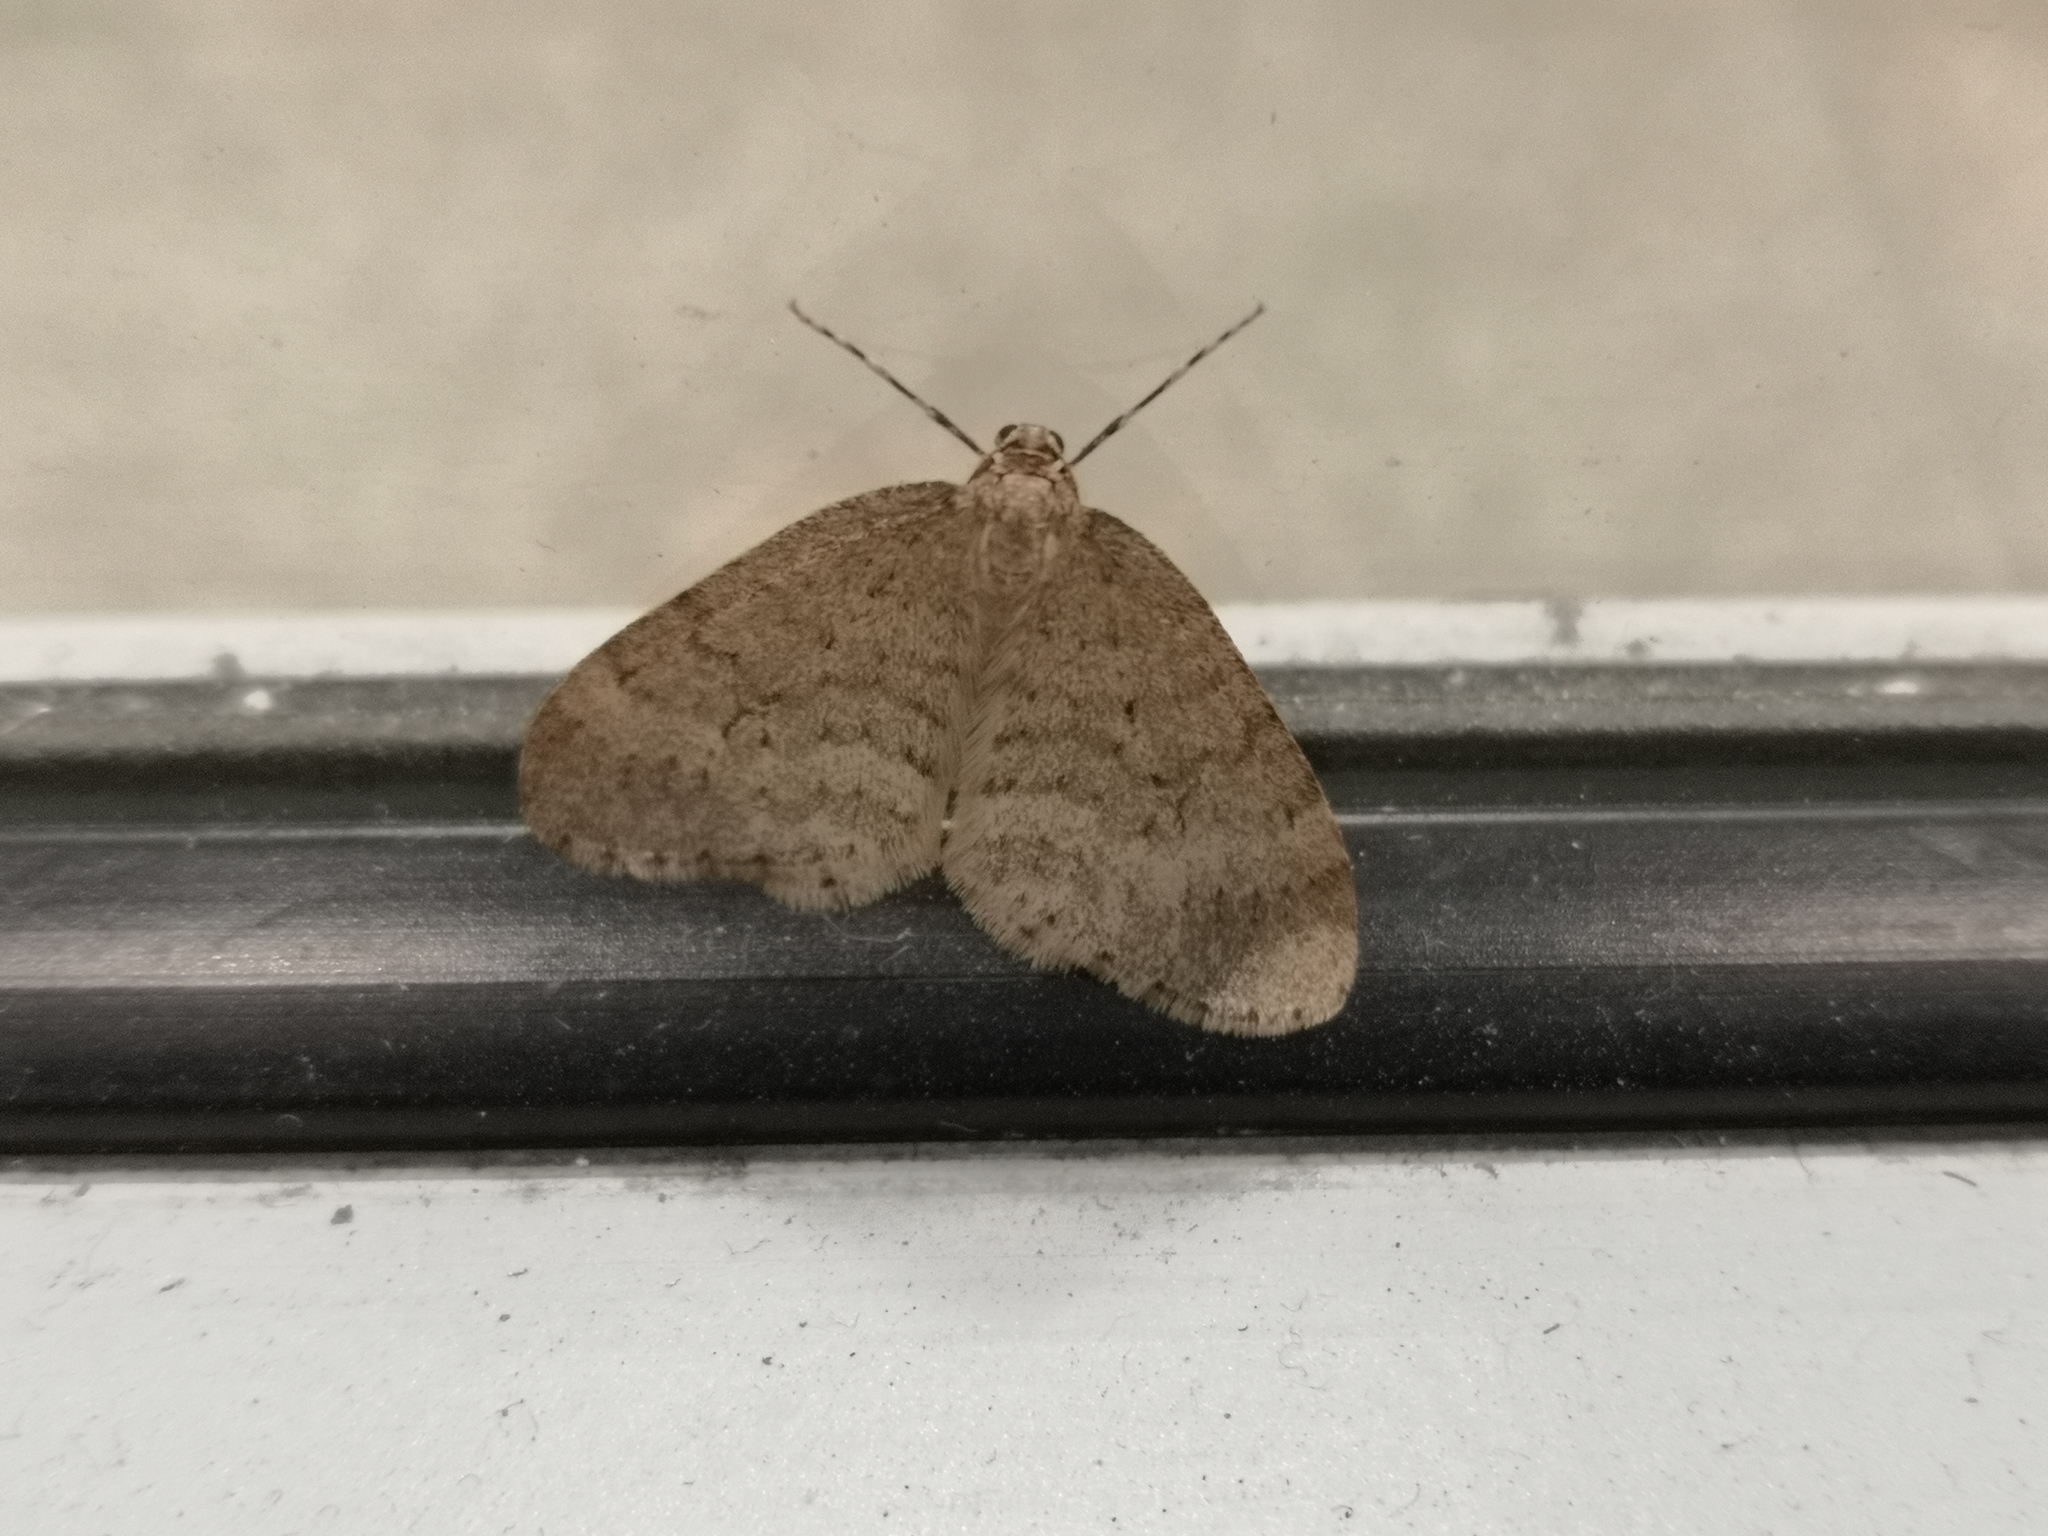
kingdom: Animalia
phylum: Arthropoda
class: Insecta
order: Lepidoptera
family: Geometridae
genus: Operophtera
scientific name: Operophtera brumata
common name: Winter moth
